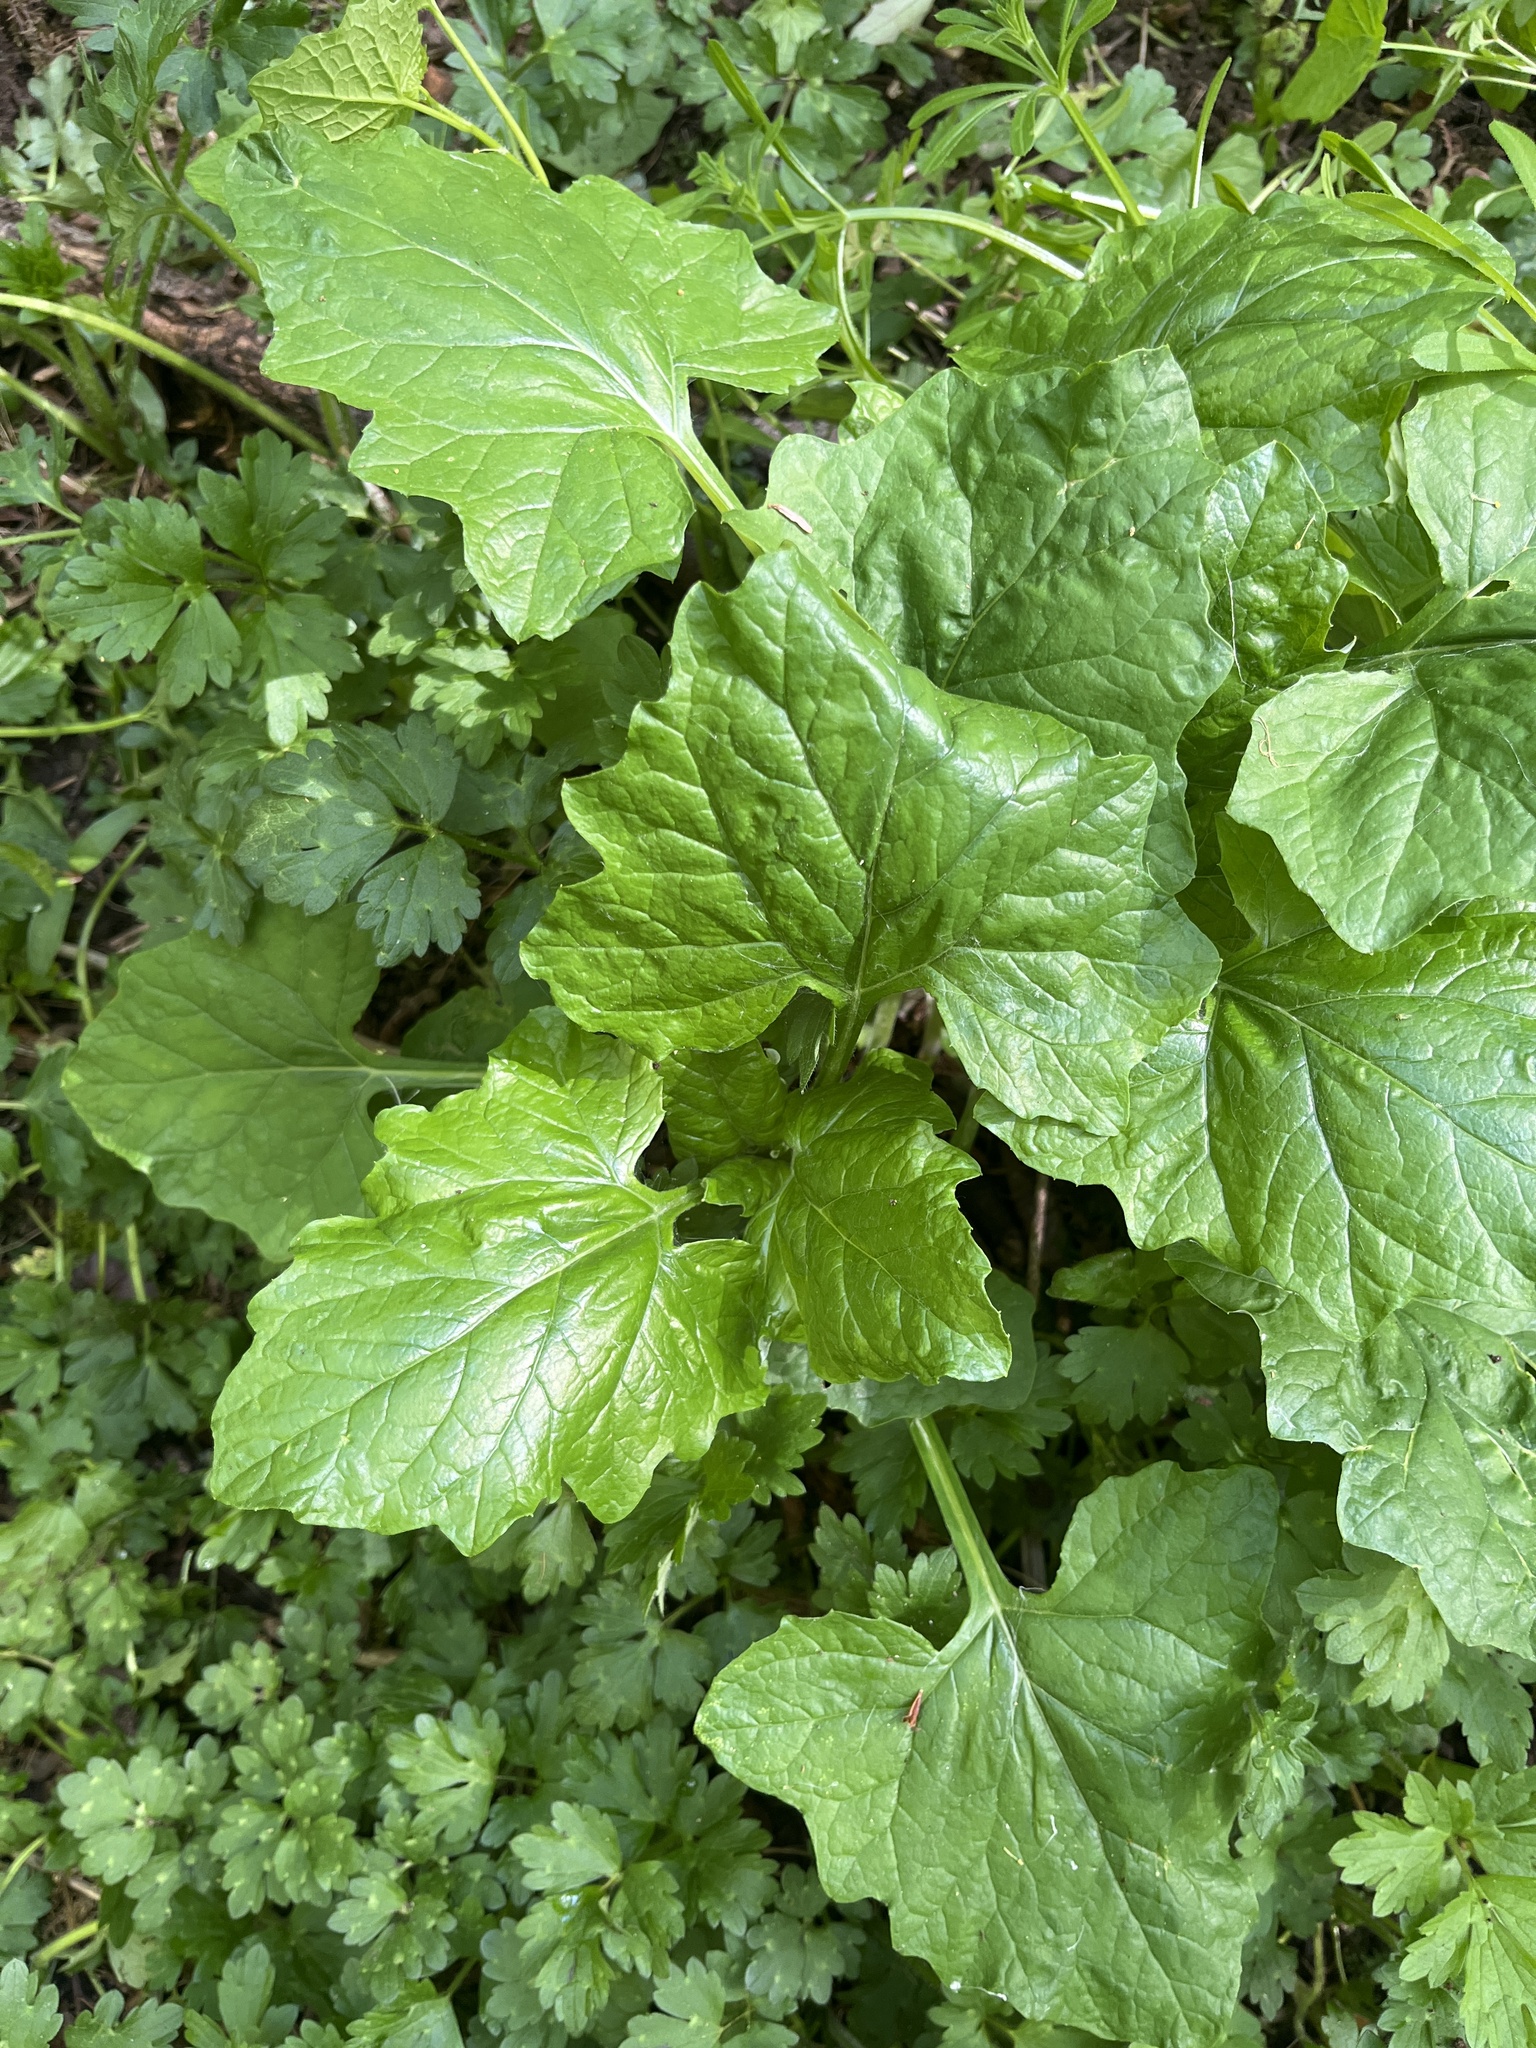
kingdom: Plantae
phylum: Tracheophyta
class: Magnoliopsida
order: Asterales
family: Asteraceae
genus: Adenocaulon
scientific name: Adenocaulon bicolor
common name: Trailplant
